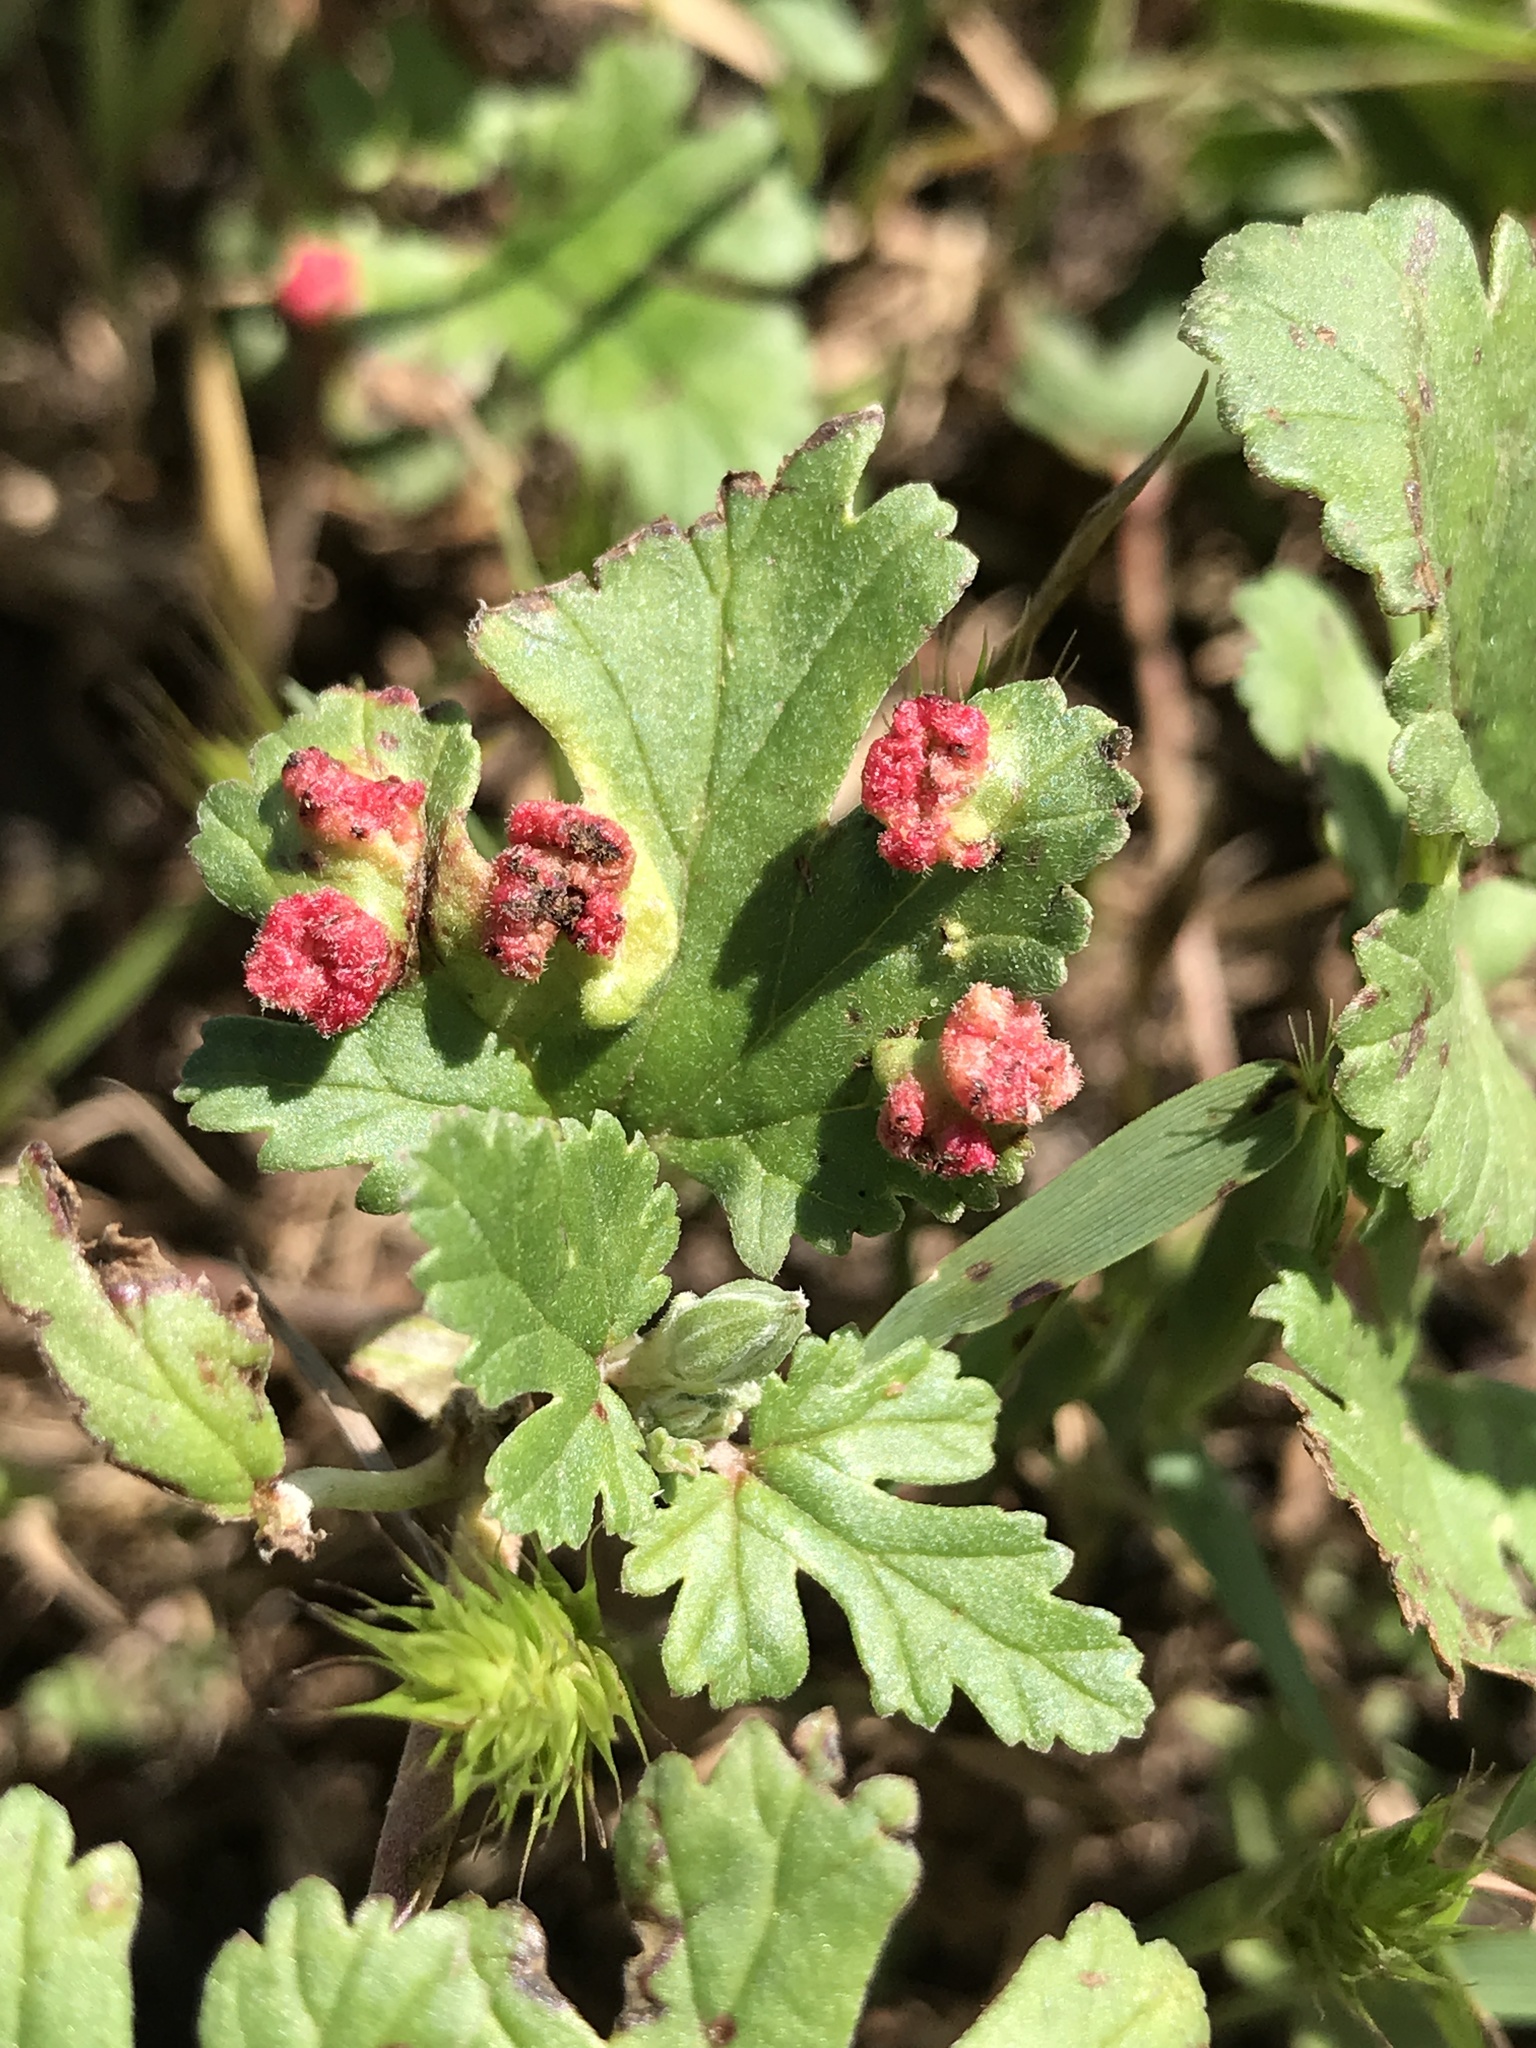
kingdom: Fungi
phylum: Chytridiomycota
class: Chytridiomycetes
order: Chytridiales
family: Synchytriaceae
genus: Synchytrium
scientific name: Synchytrium geranii
